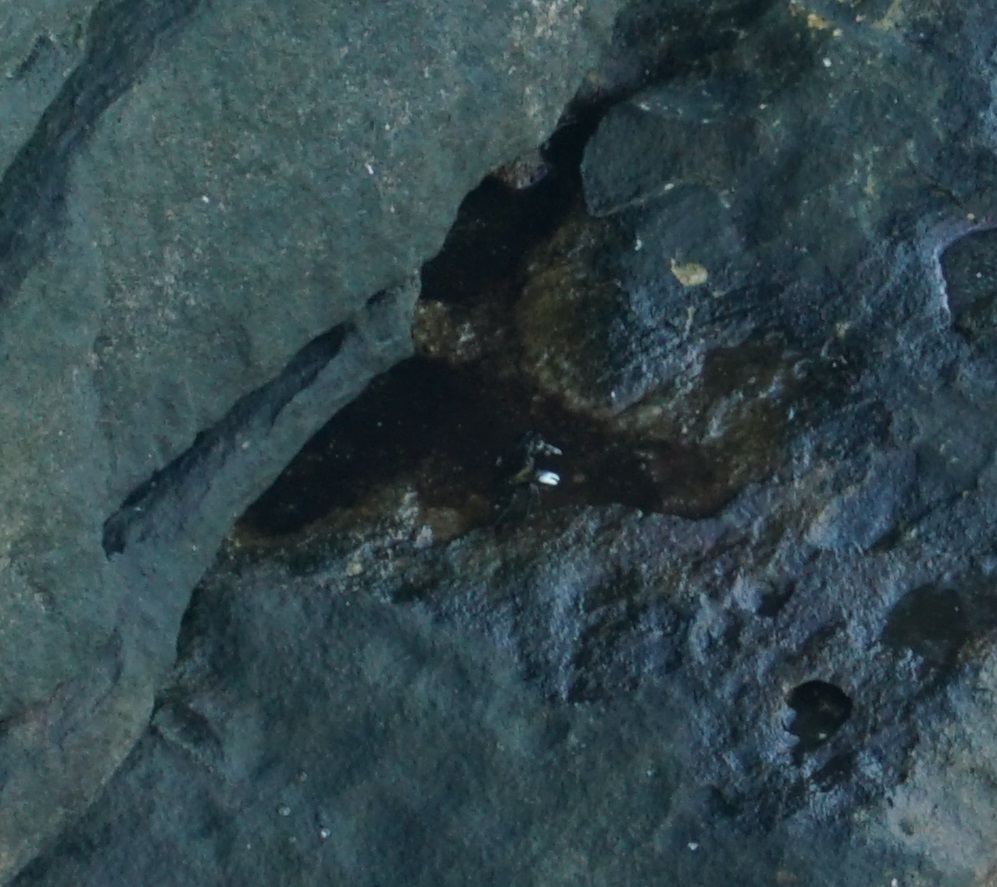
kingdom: Animalia
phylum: Arthropoda
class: Malacostraca
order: Decapoda
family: Grapsidae
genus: Leptograpsus
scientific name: Leptograpsus variegatus
